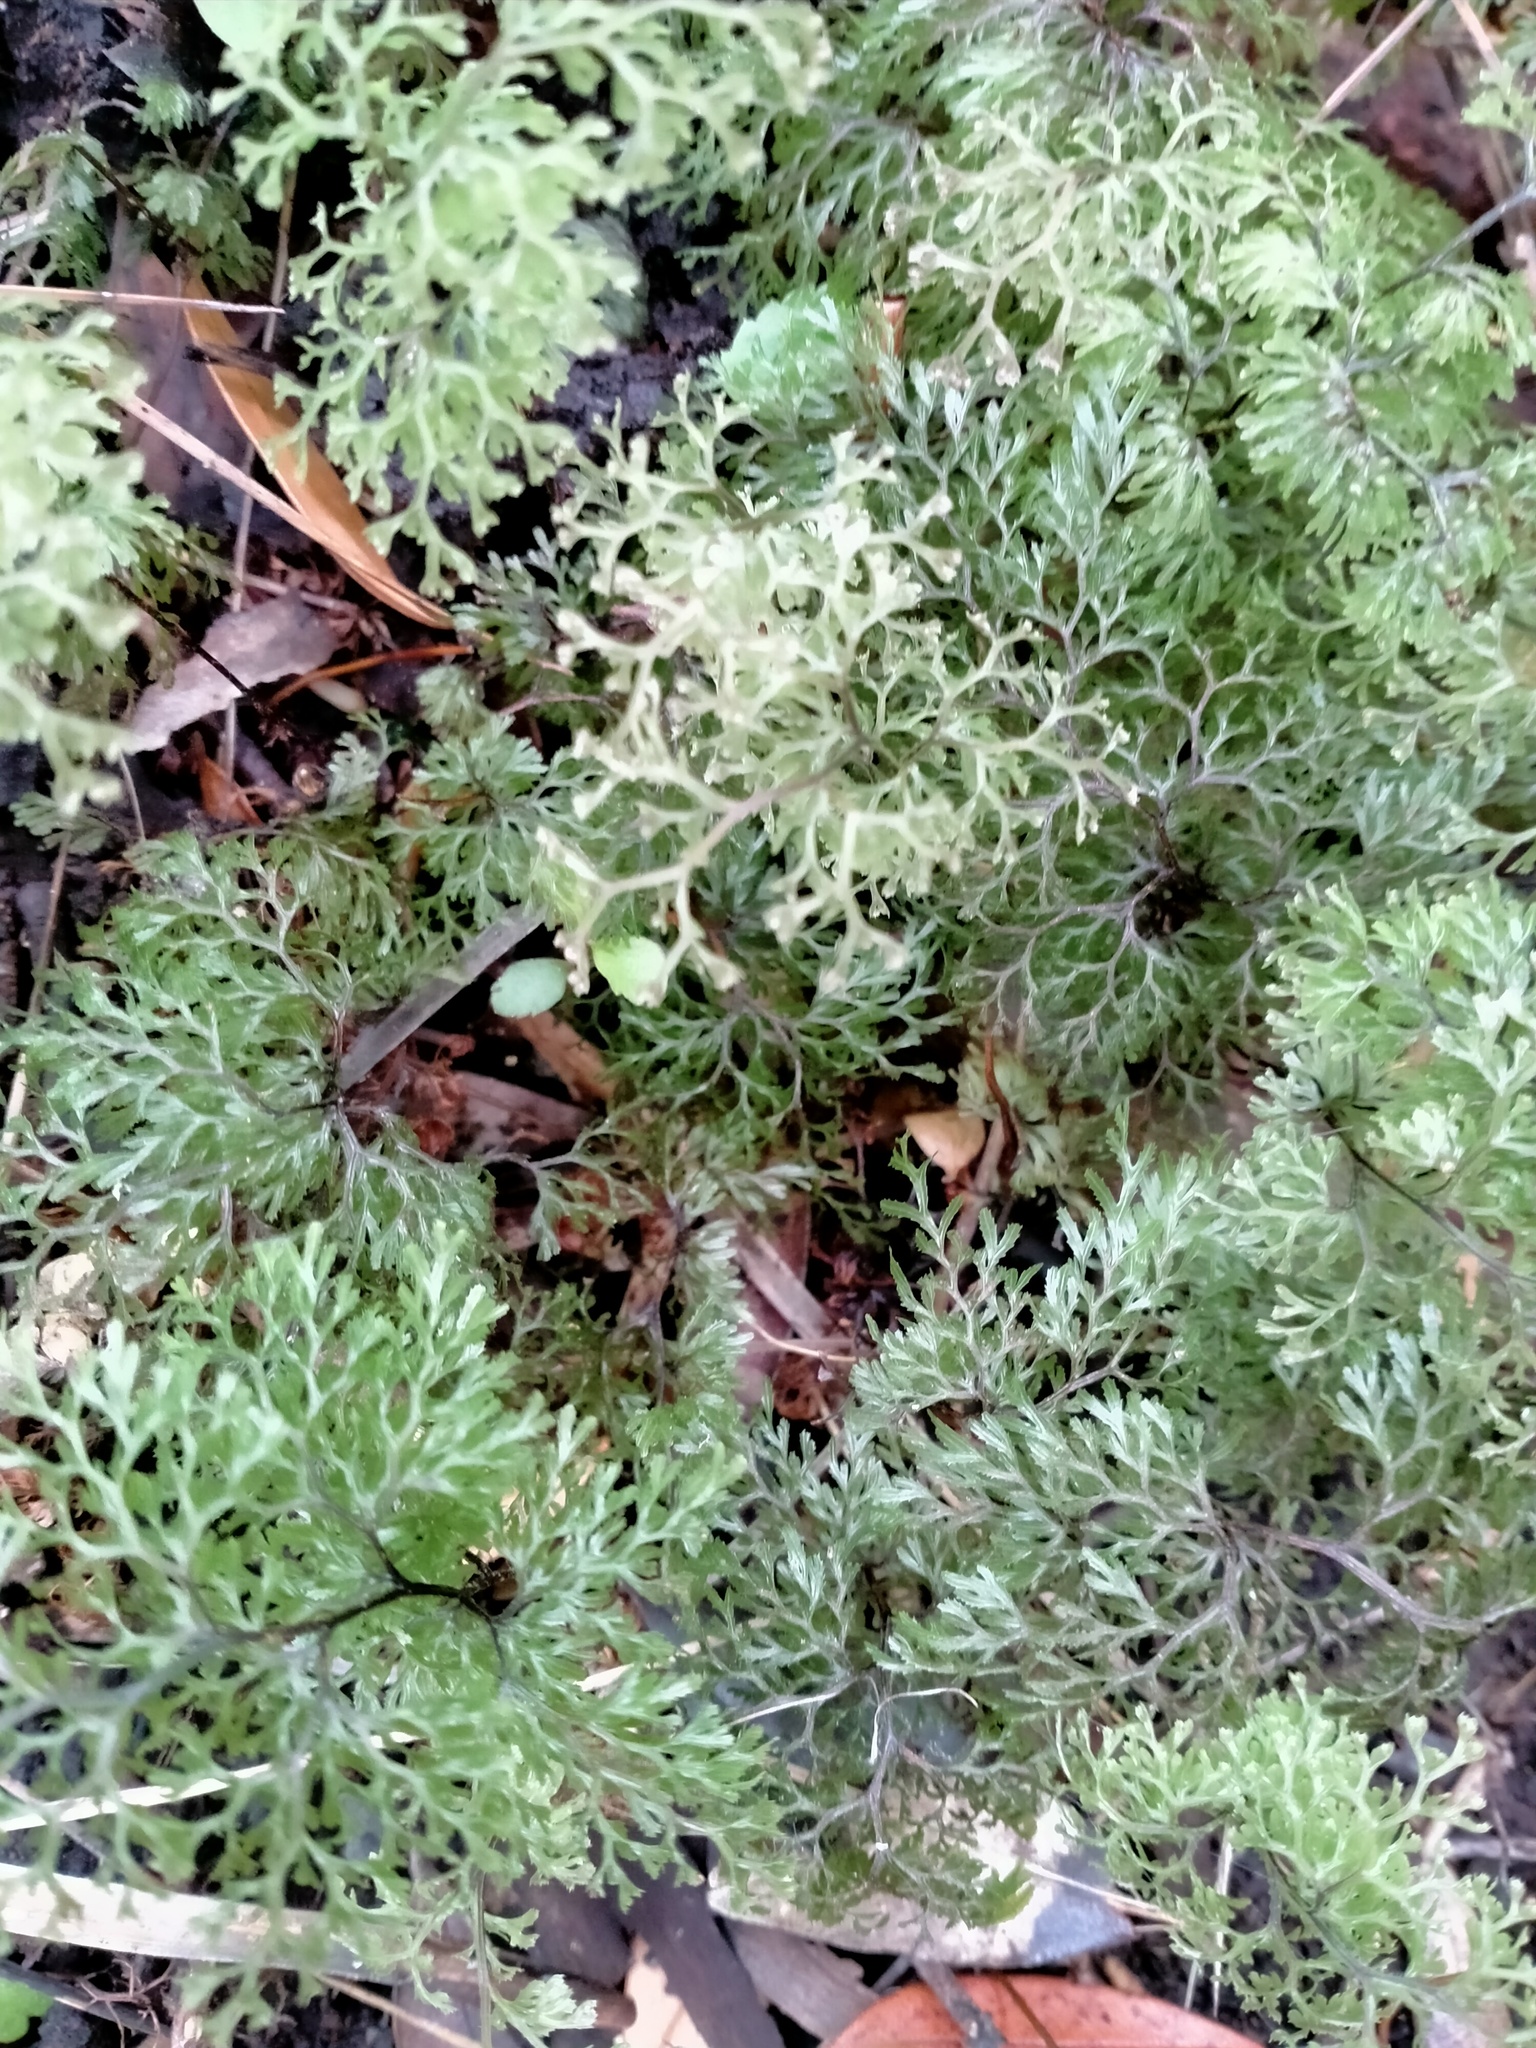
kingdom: Plantae
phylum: Tracheophyta
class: Polypodiopsida
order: Hymenophyllales
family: Hymenophyllaceae
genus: Hymenophyllum
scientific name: Hymenophyllum multifidum
